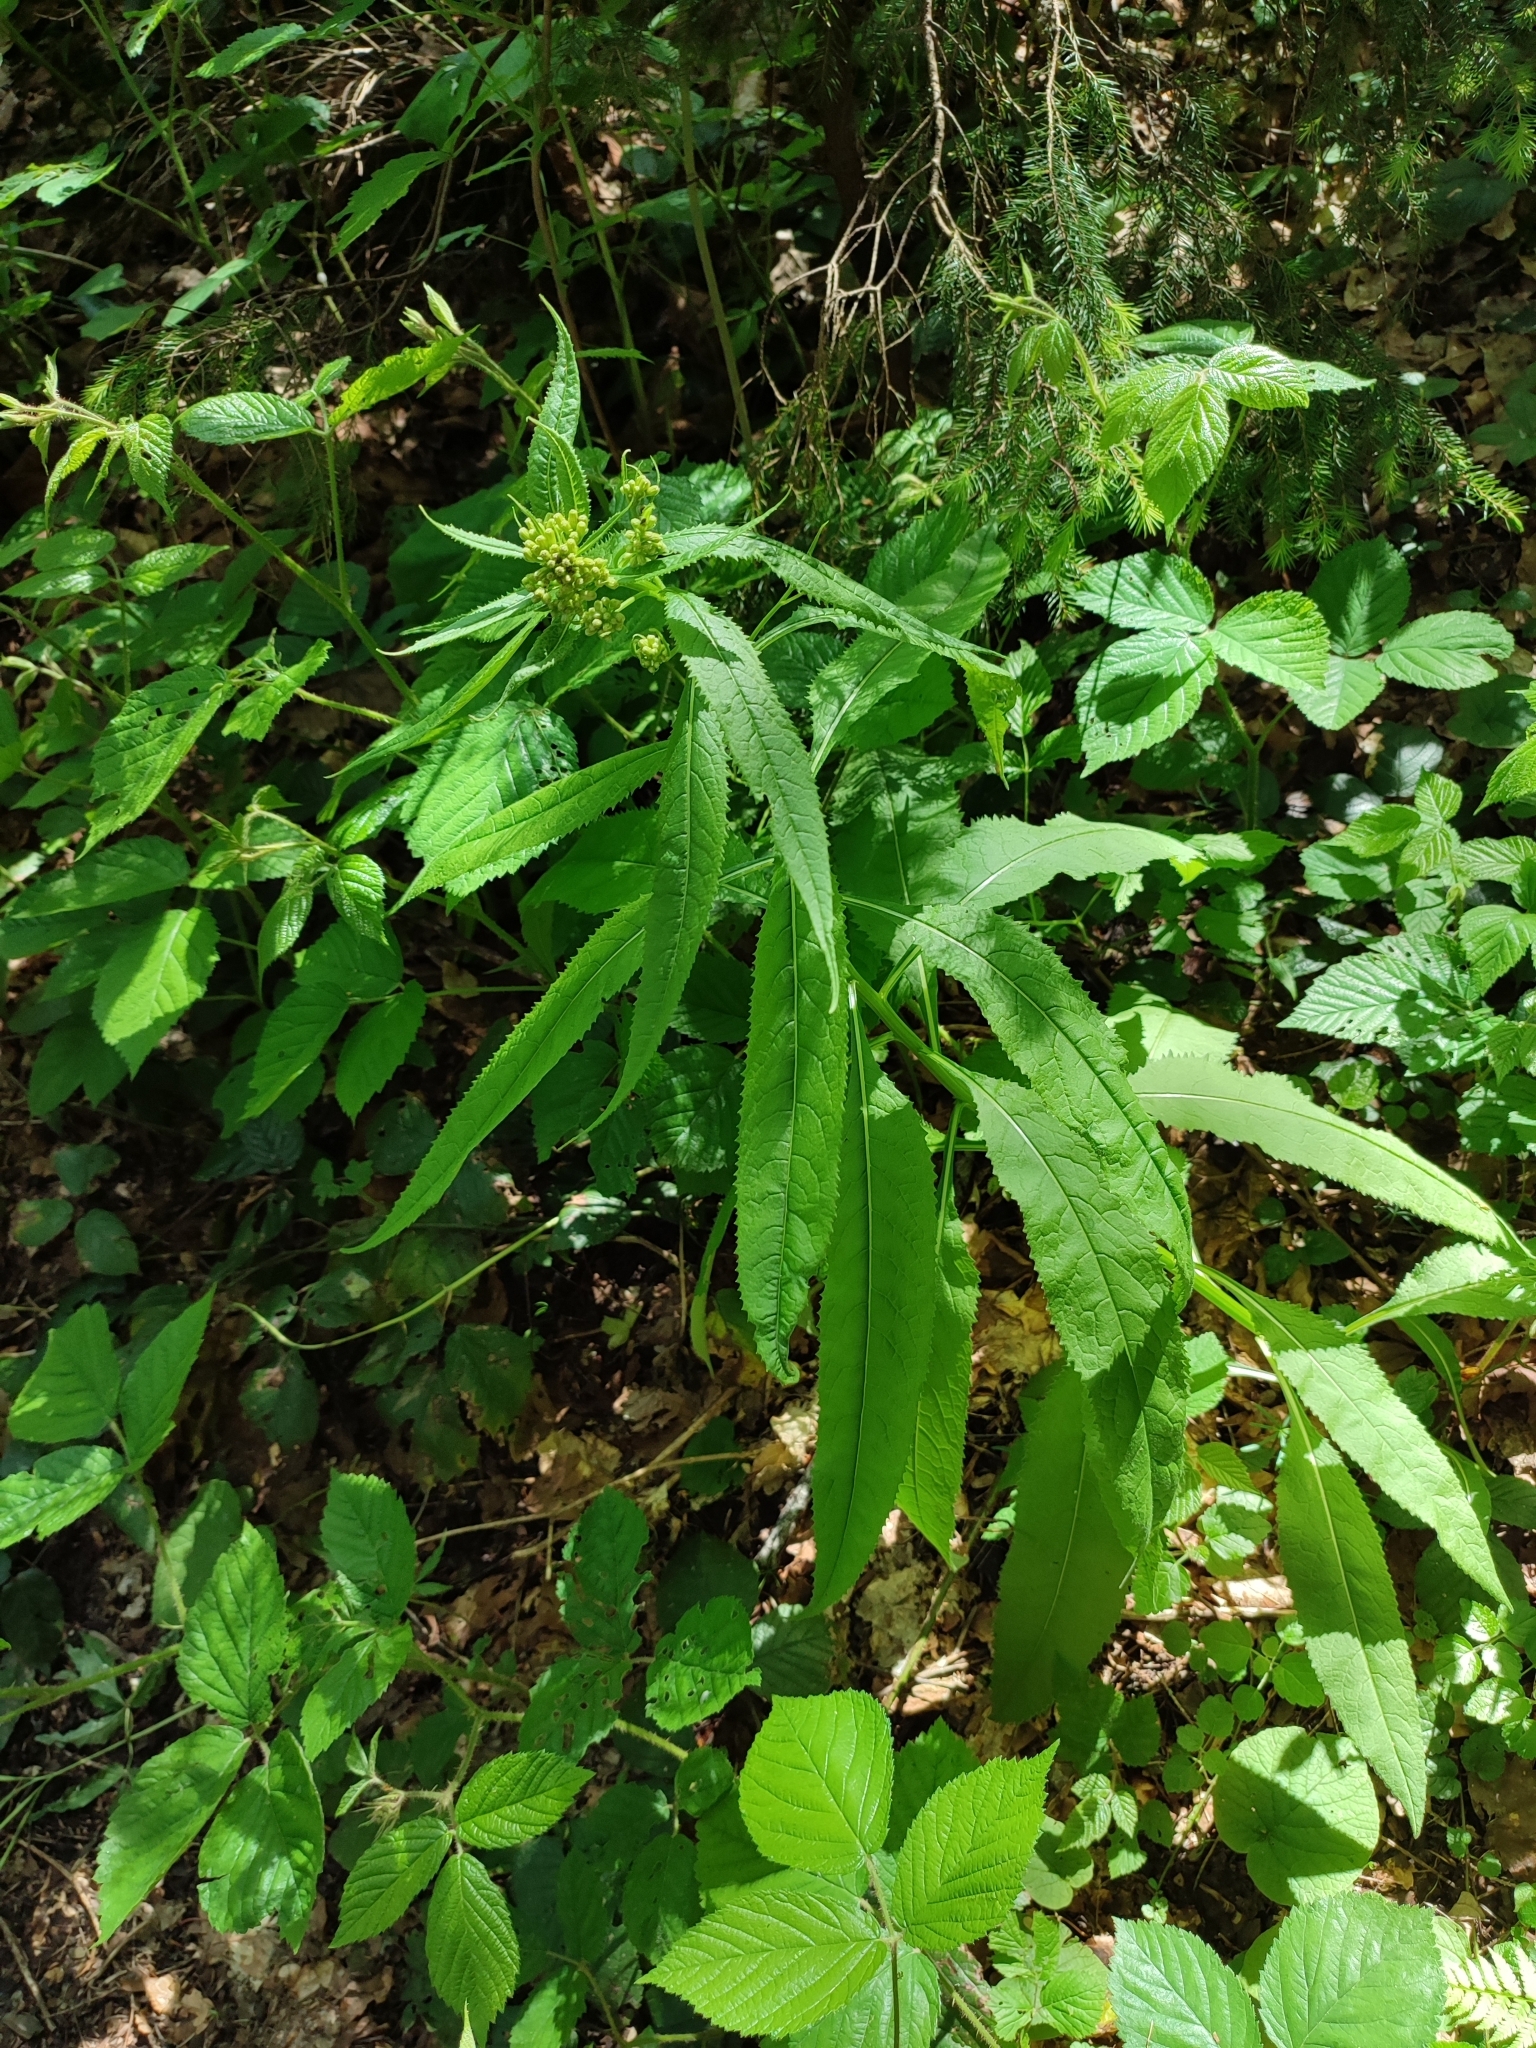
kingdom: Plantae
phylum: Tracheophyta
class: Magnoliopsida
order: Asterales
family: Asteraceae
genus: Senecio
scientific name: Senecio ovatus
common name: Wood ragwort
